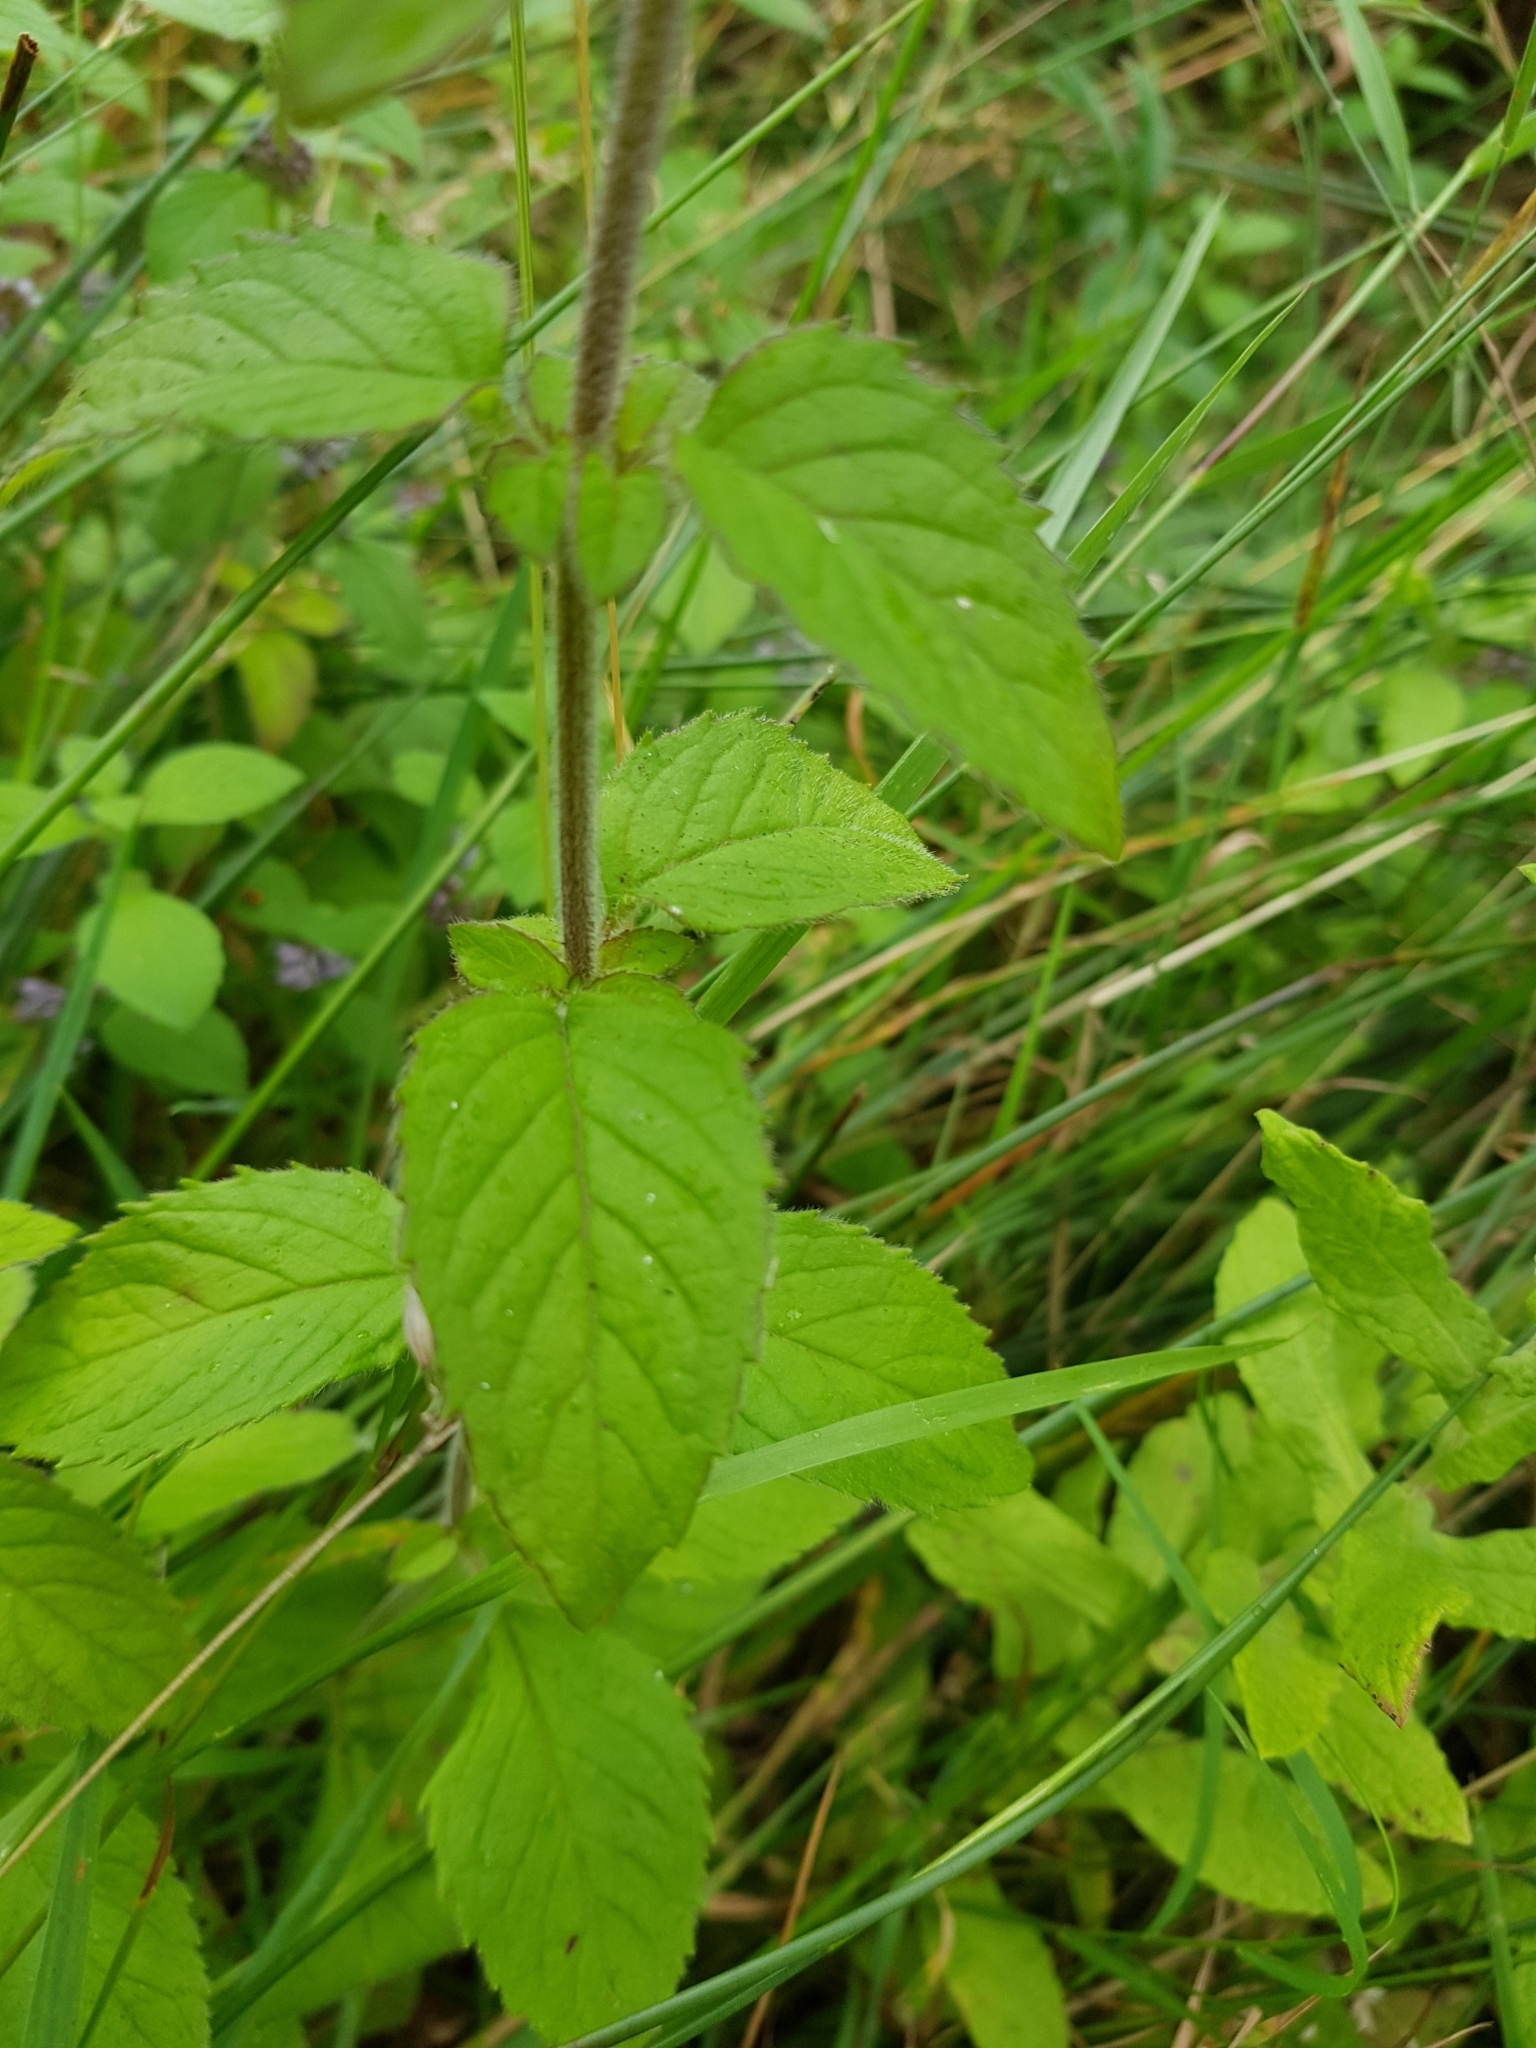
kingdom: Plantae
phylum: Tracheophyta
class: Magnoliopsida
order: Lamiales
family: Lamiaceae
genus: Mentha
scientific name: Mentha aquatica
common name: Water mint
